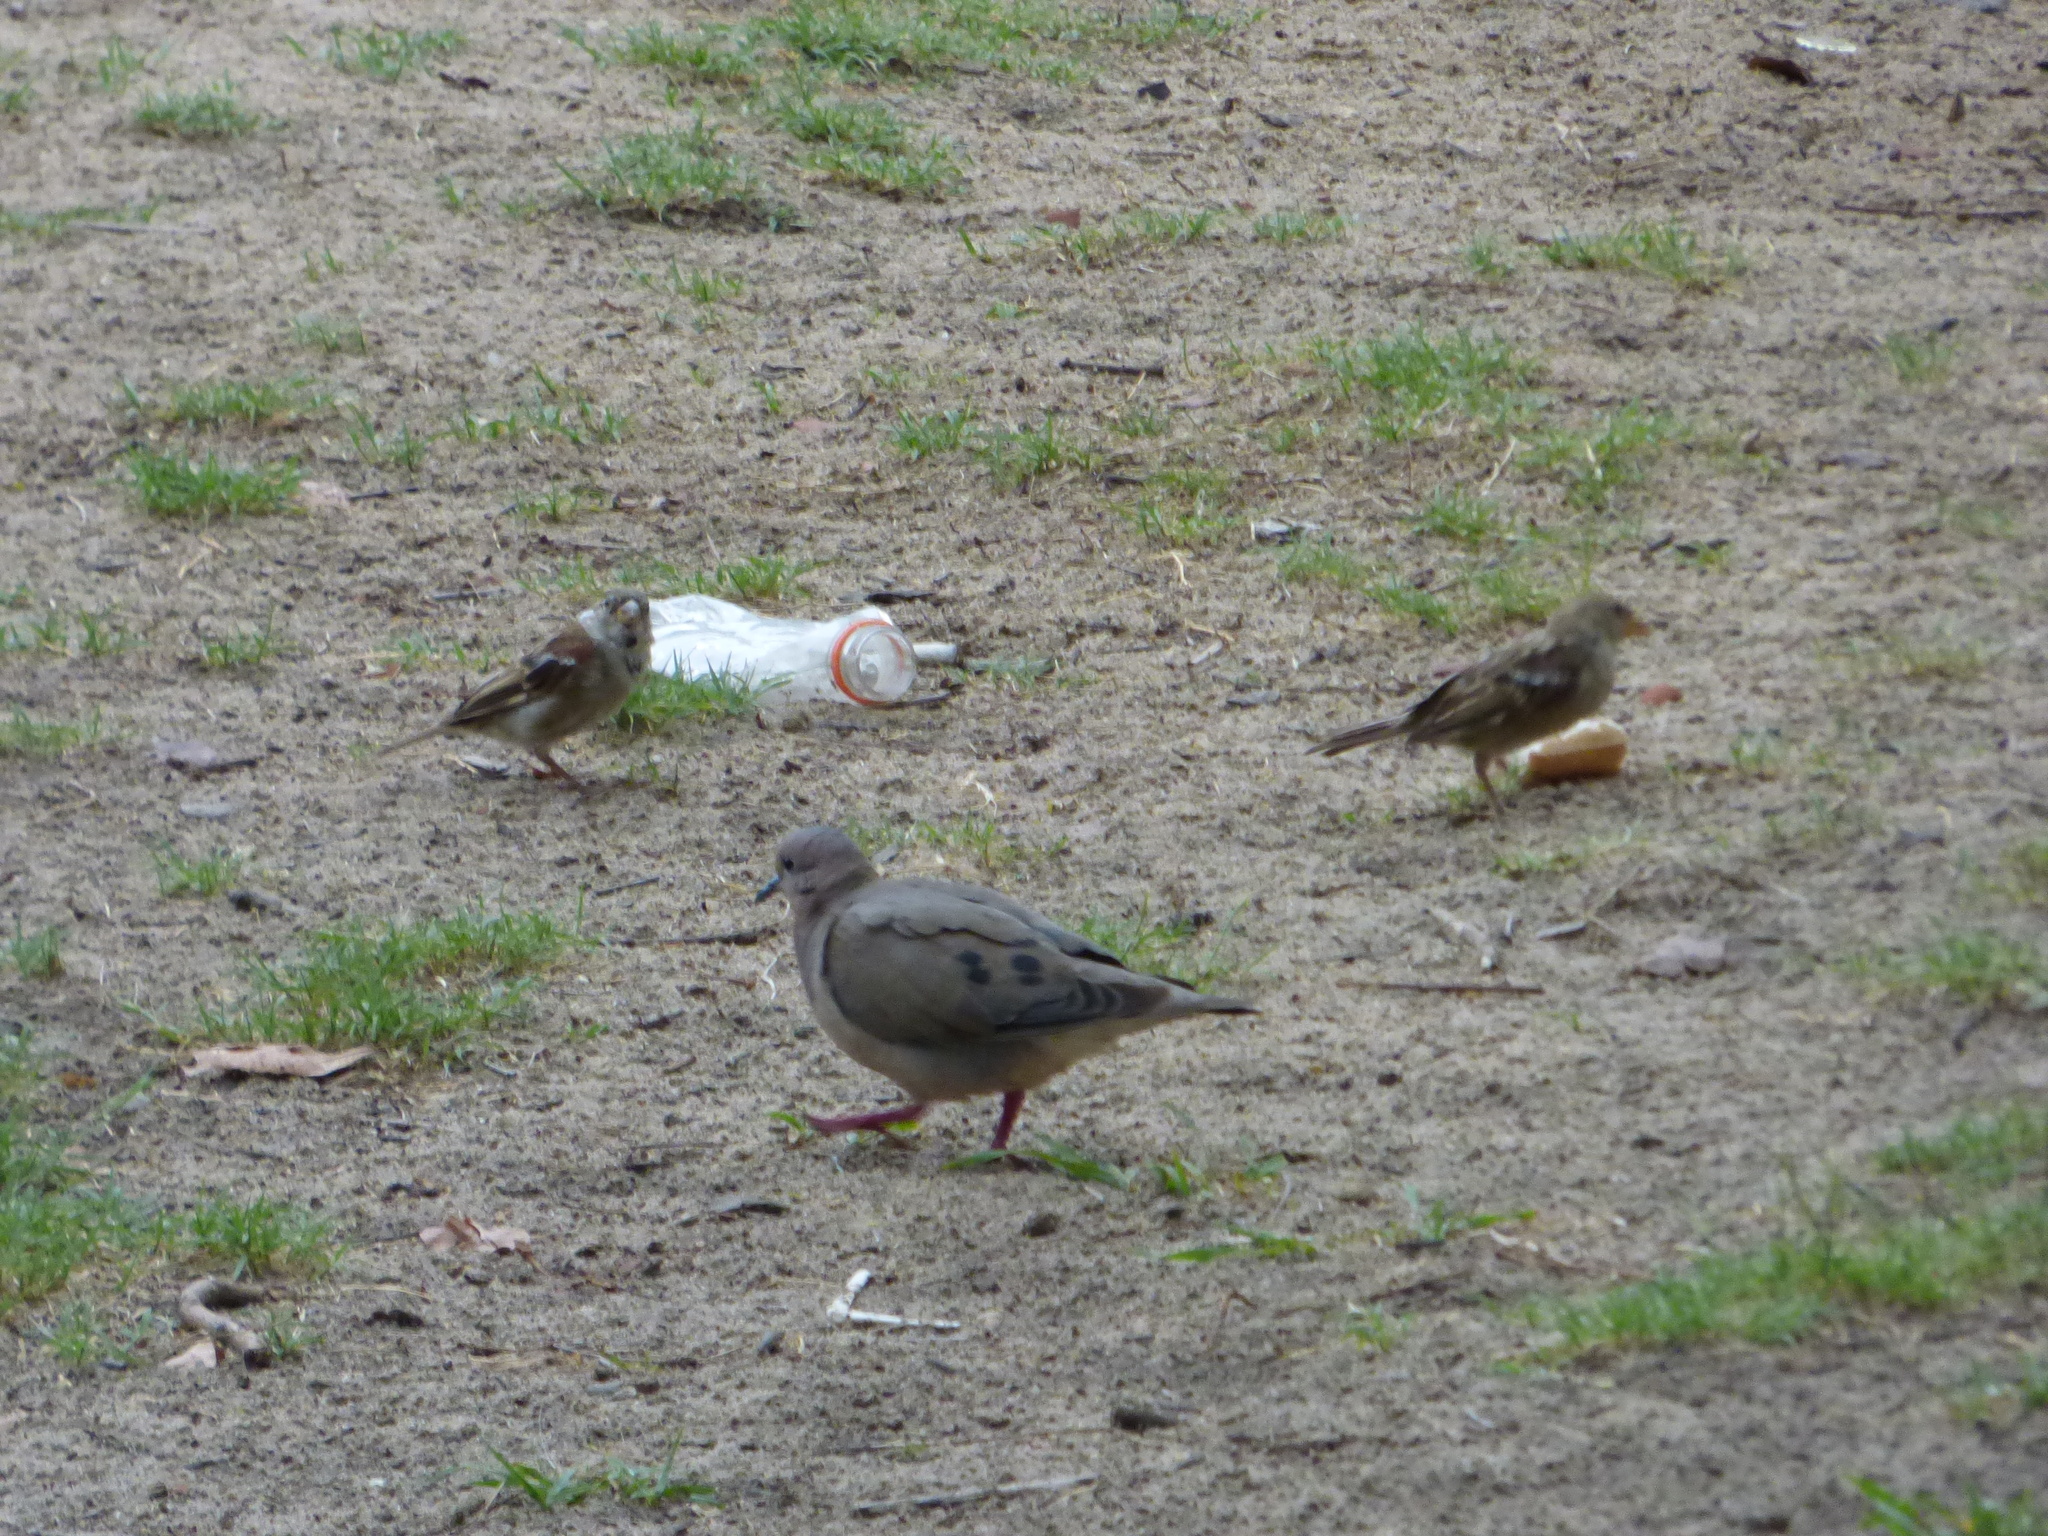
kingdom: Animalia
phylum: Chordata
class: Aves
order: Columbiformes
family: Columbidae
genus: Zenaida
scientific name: Zenaida auriculata
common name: Eared dove
